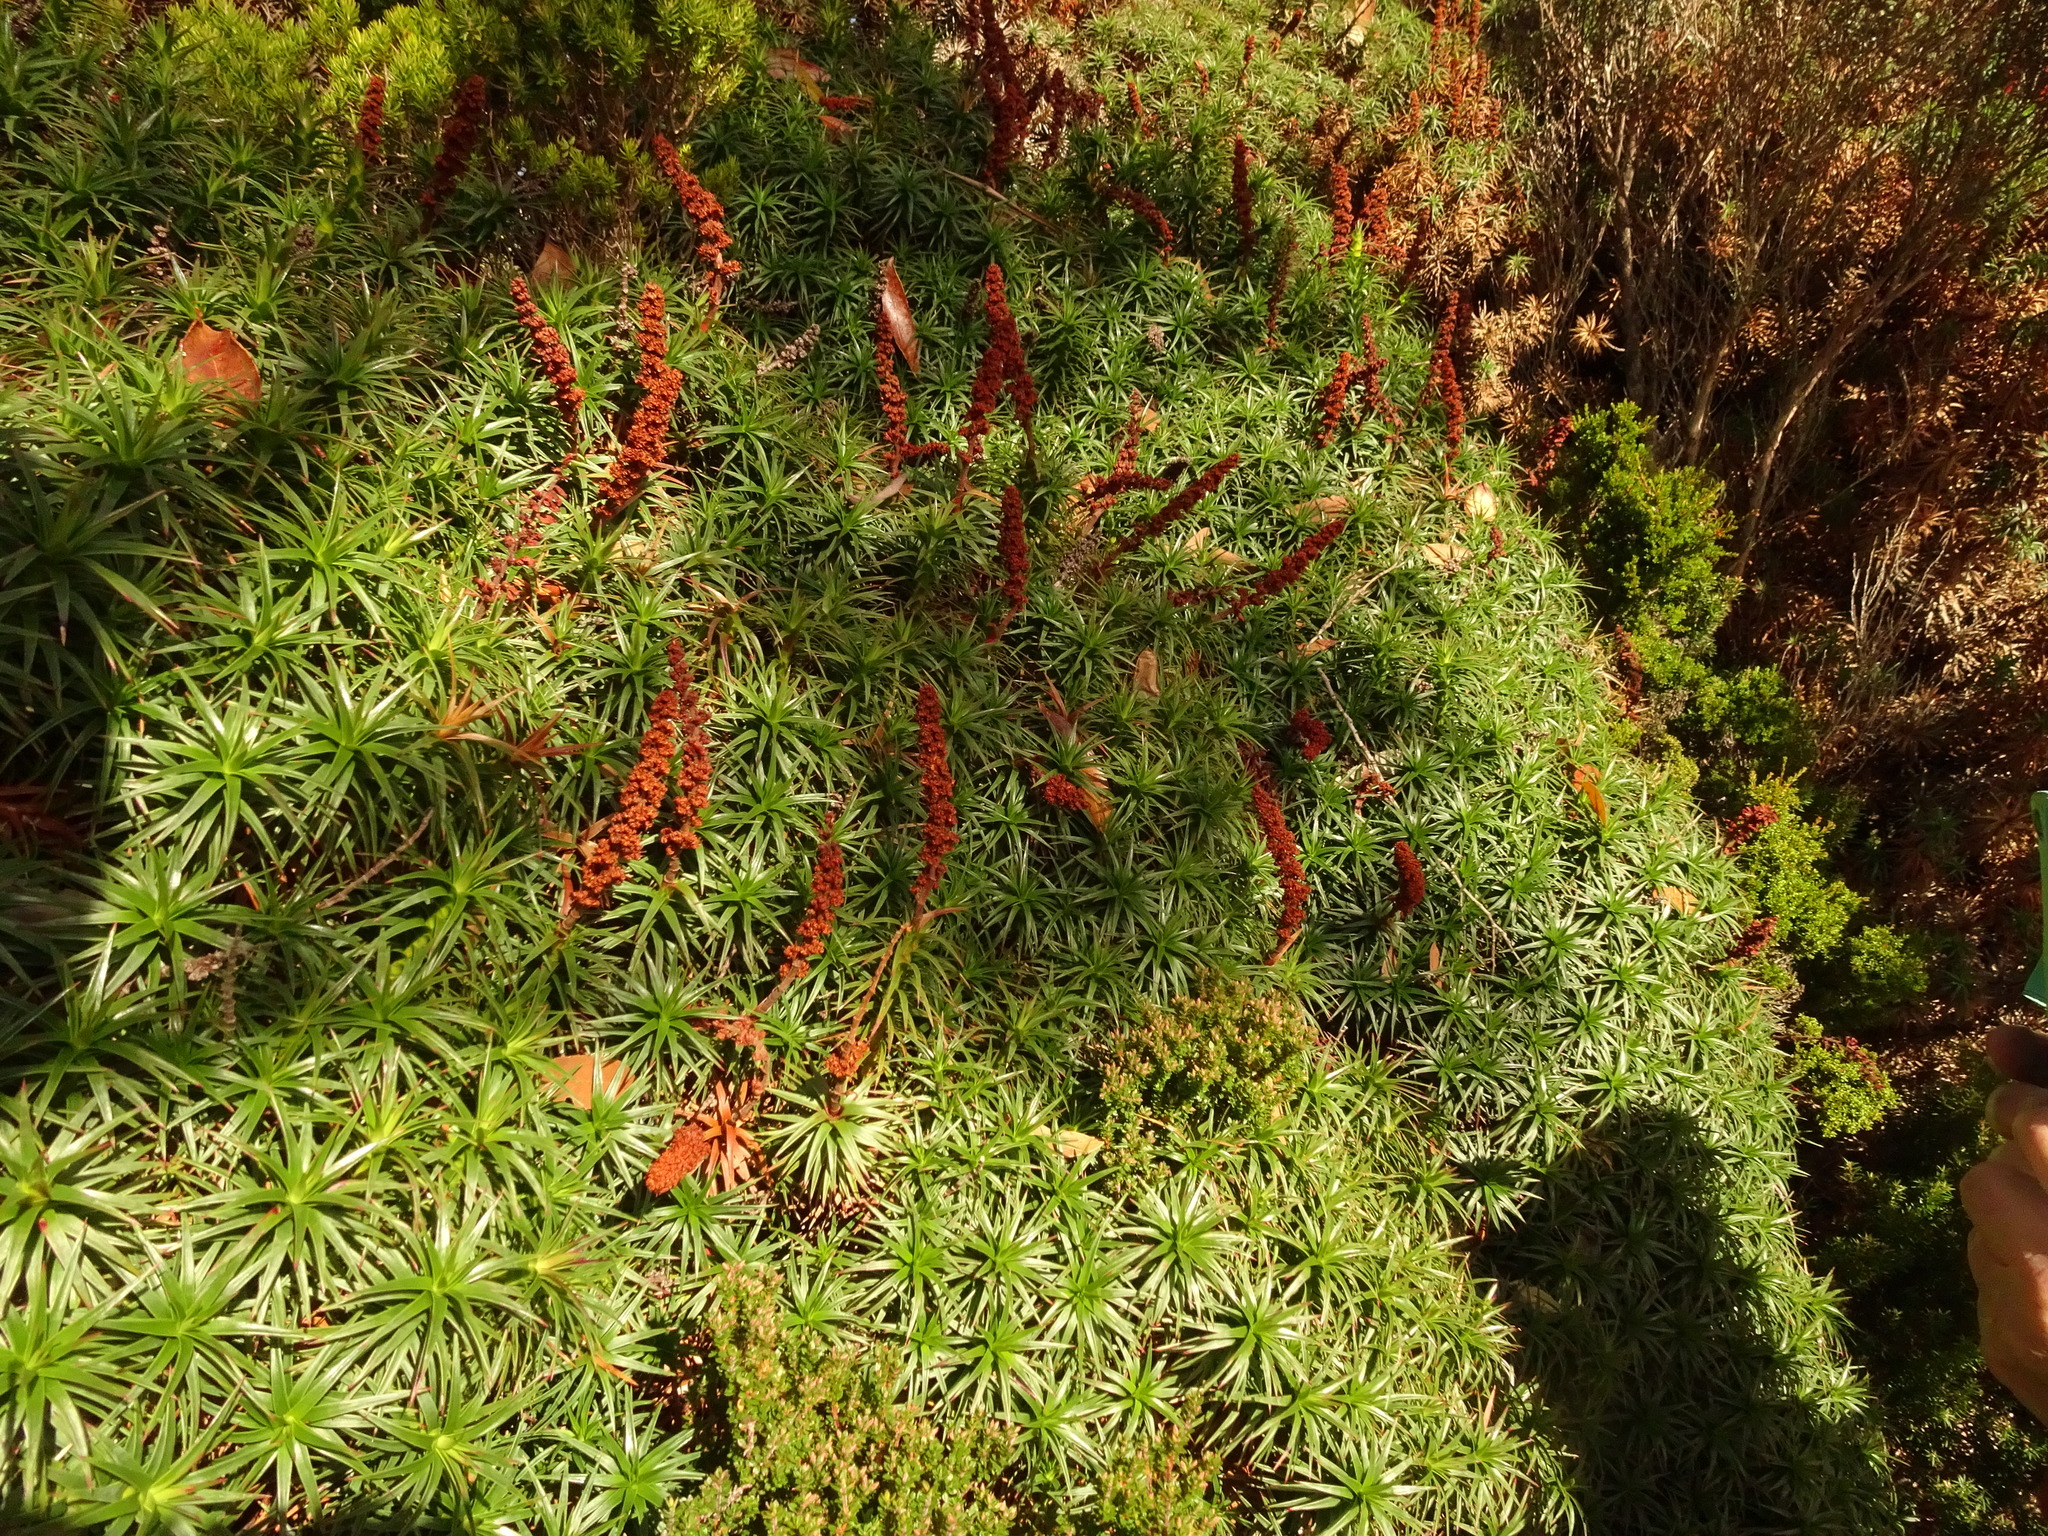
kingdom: Plantae
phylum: Tracheophyta
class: Magnoliopsida
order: Ericales
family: Ericaceae
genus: Dracophyllum
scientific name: Dracophyllum persistentifolium
